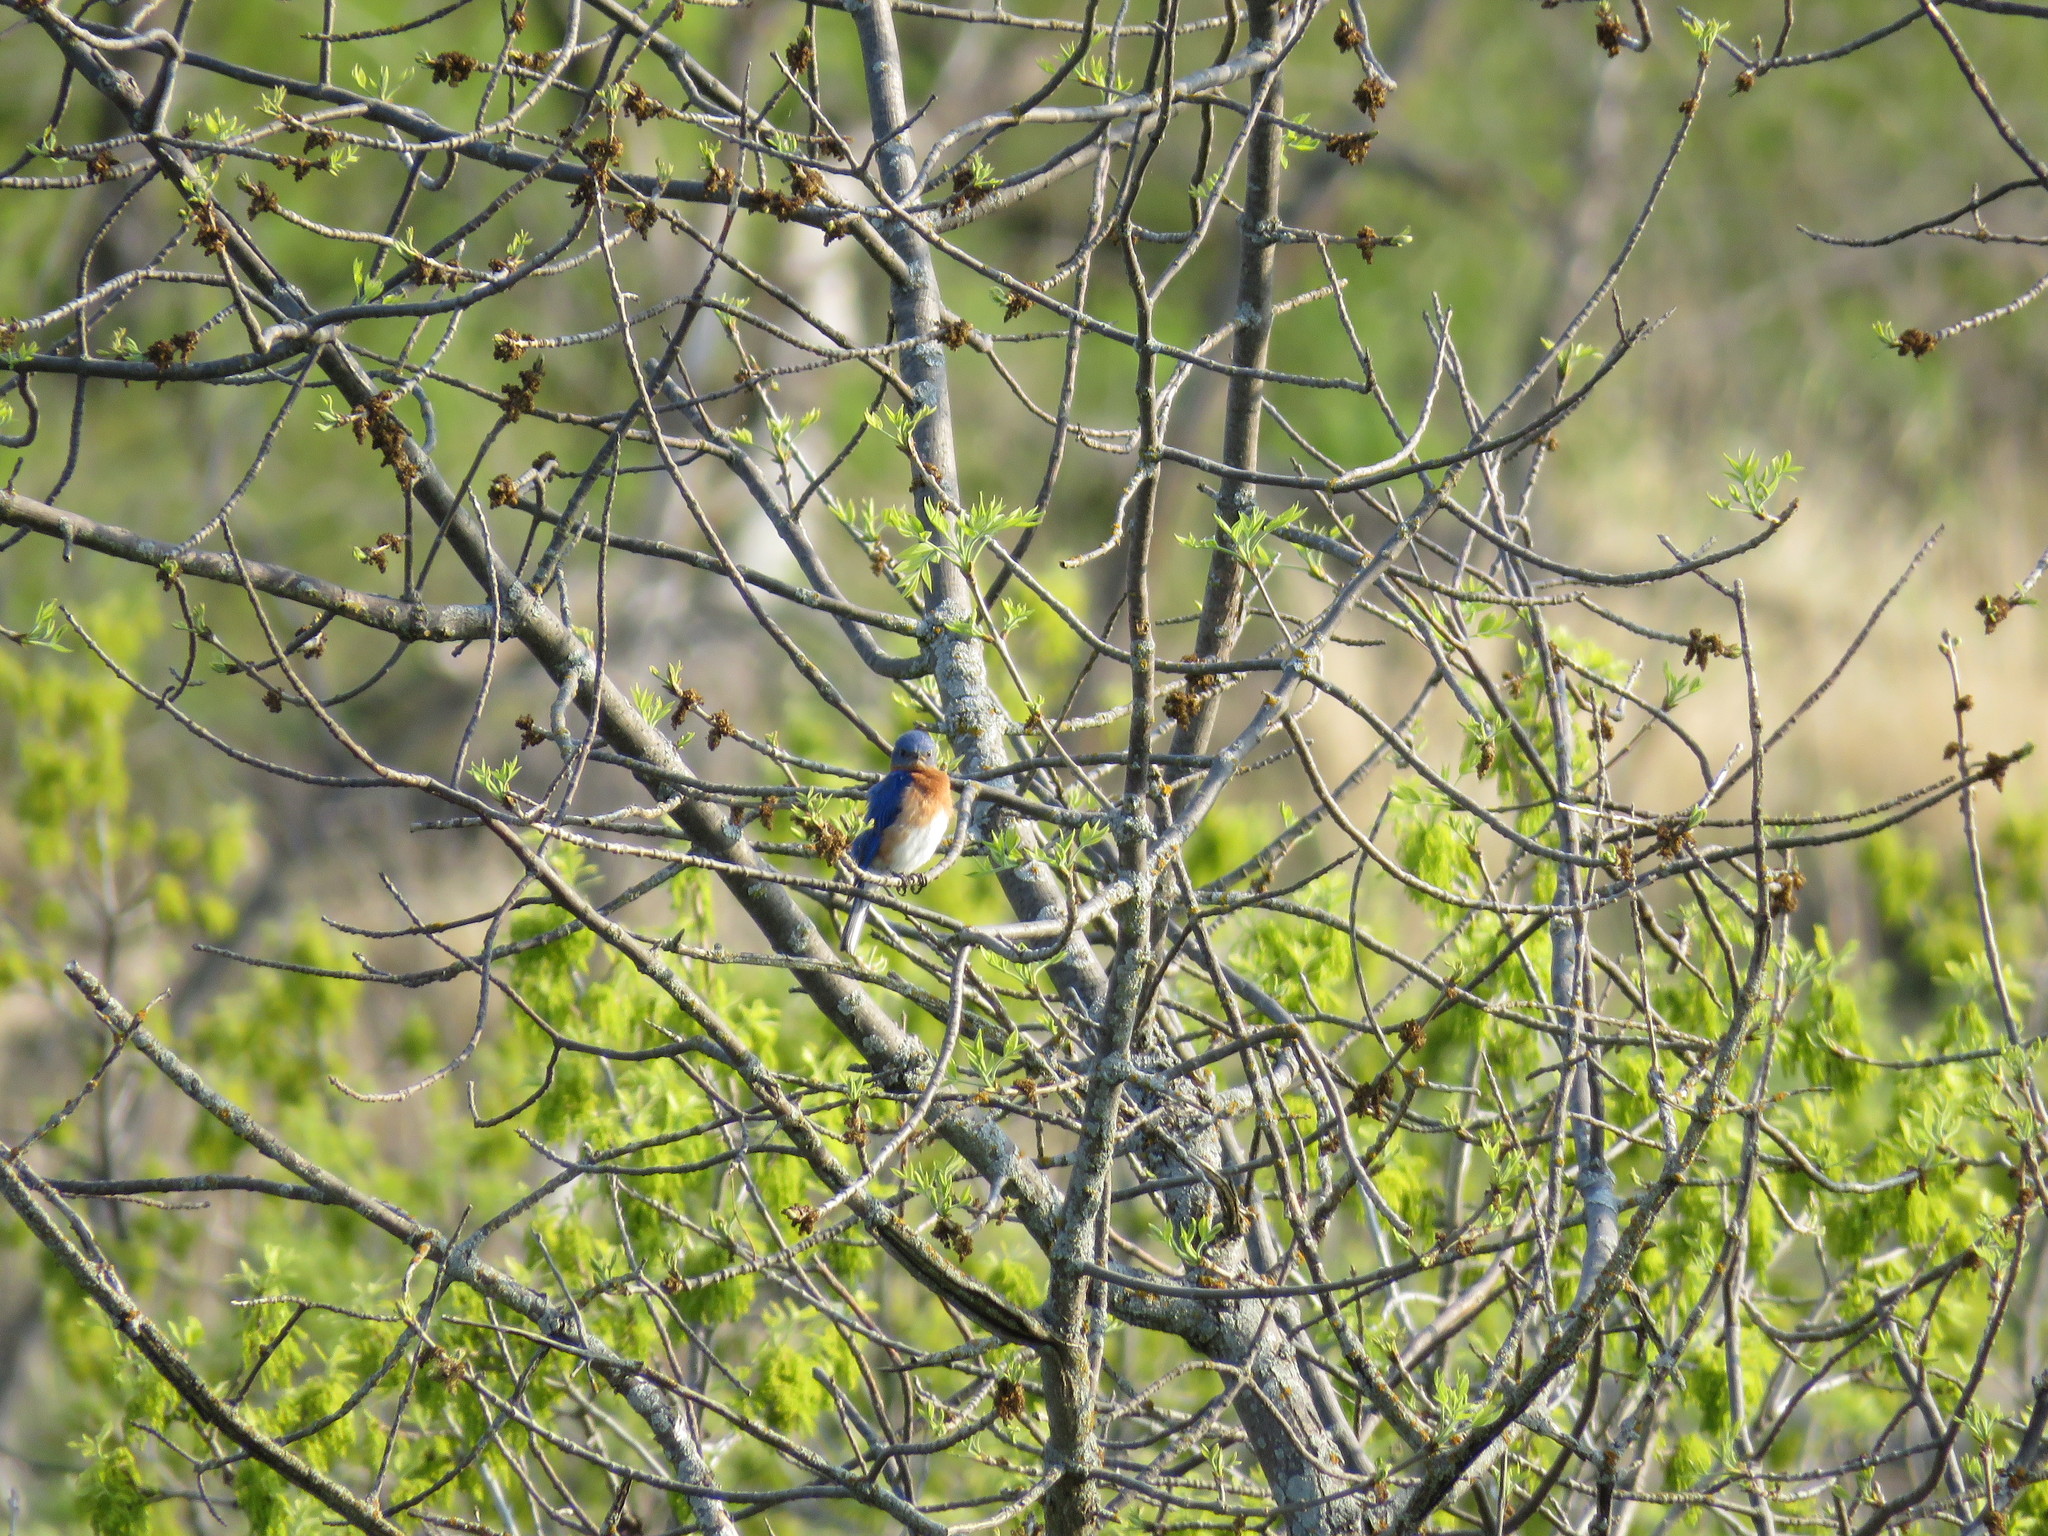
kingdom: Animalia
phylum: Chordata
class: Aves
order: Passeriformes
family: Turdidae
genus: Sialia
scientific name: Sialia sialis
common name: Eastern bluebird
